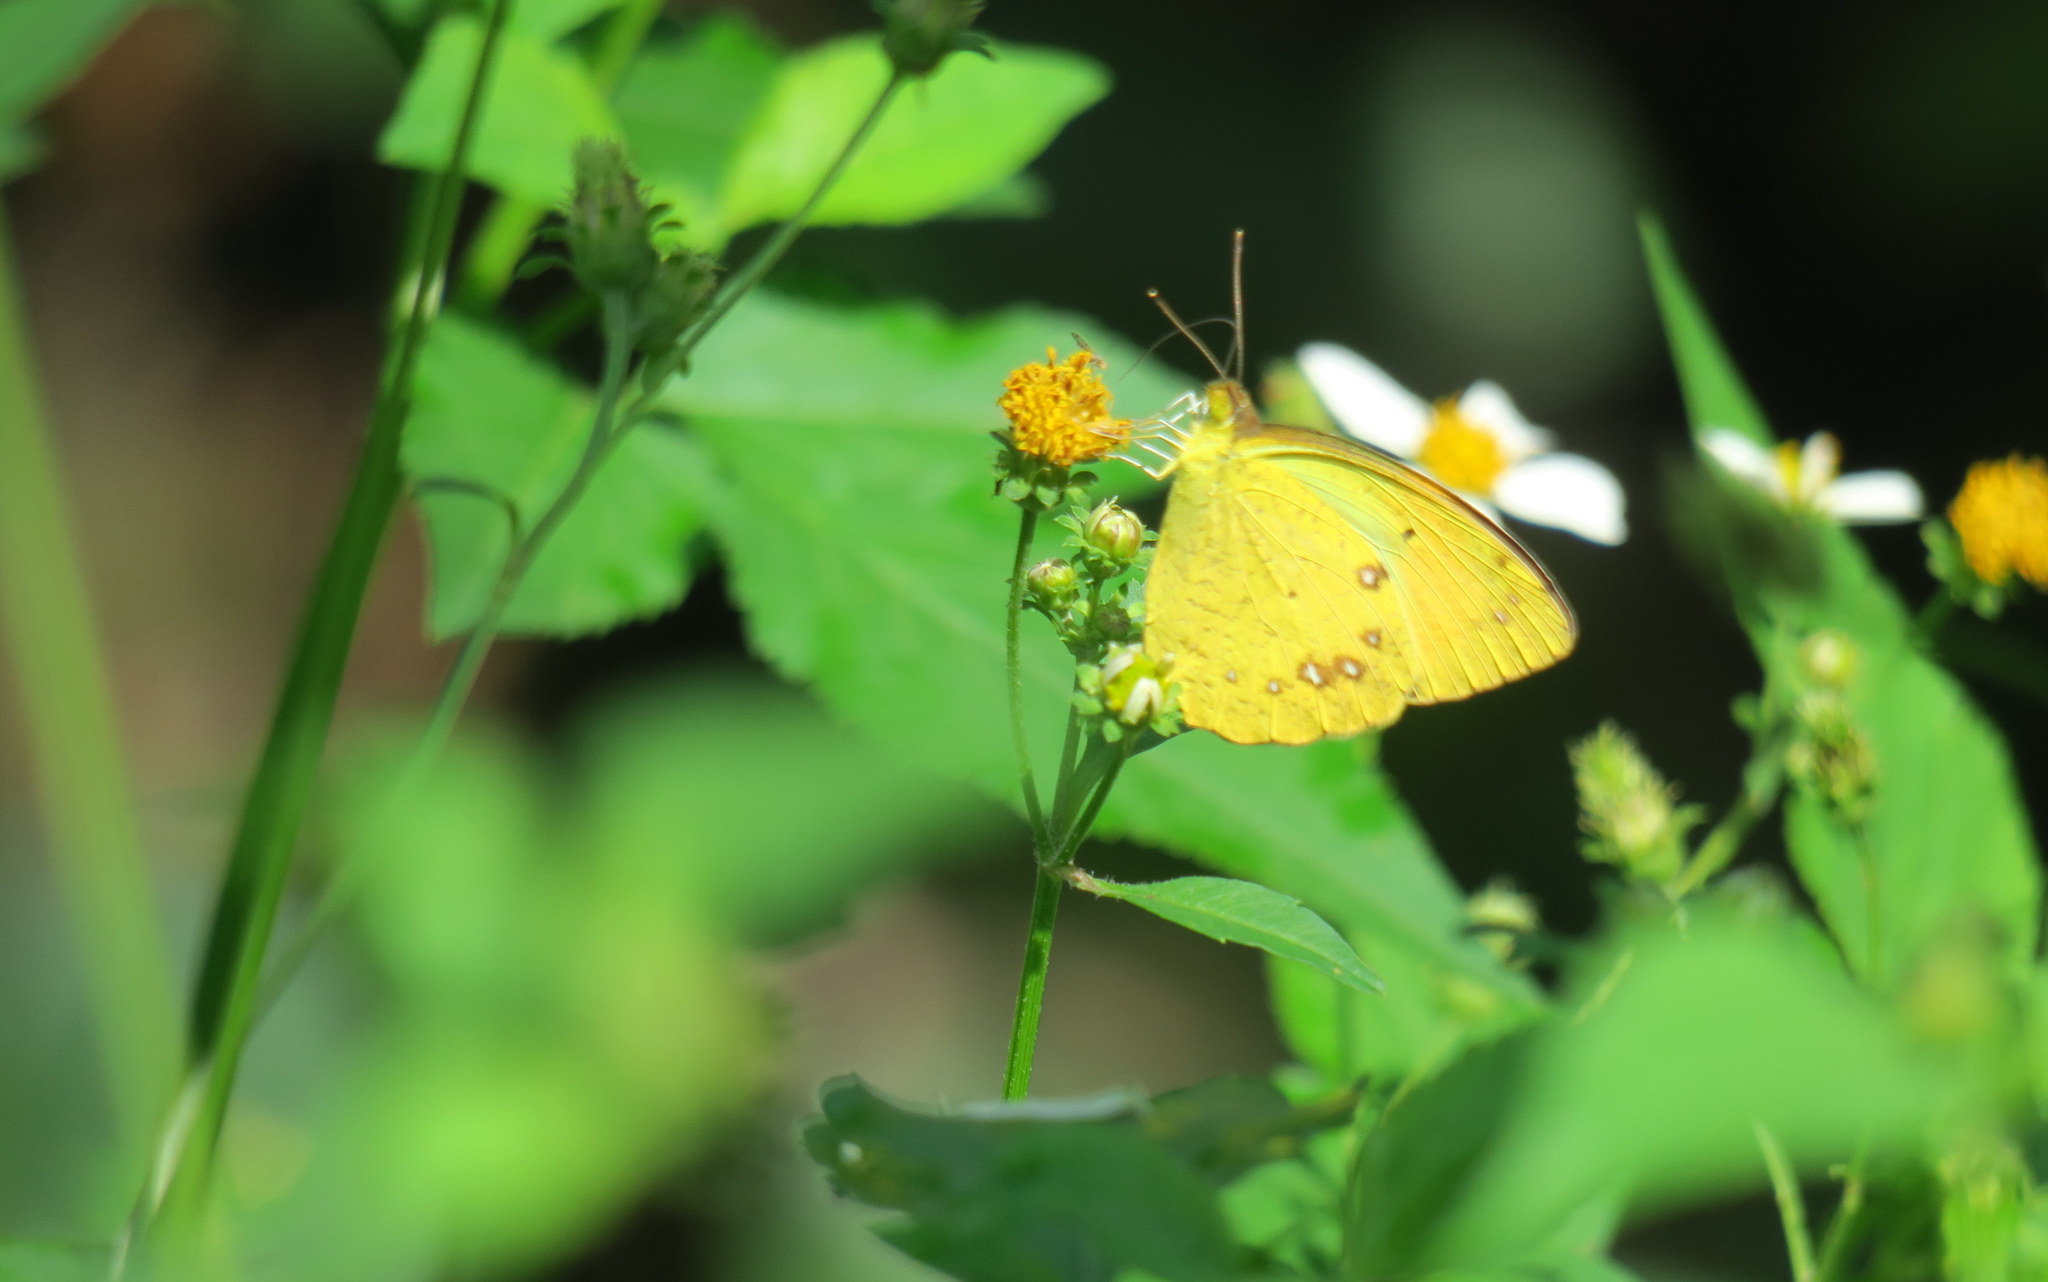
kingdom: Animalia
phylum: Arthropoda
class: Insecta
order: Lepidoptera
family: Pieridae
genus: Ixias
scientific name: Ixias pyrene
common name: Yellow orange tip
